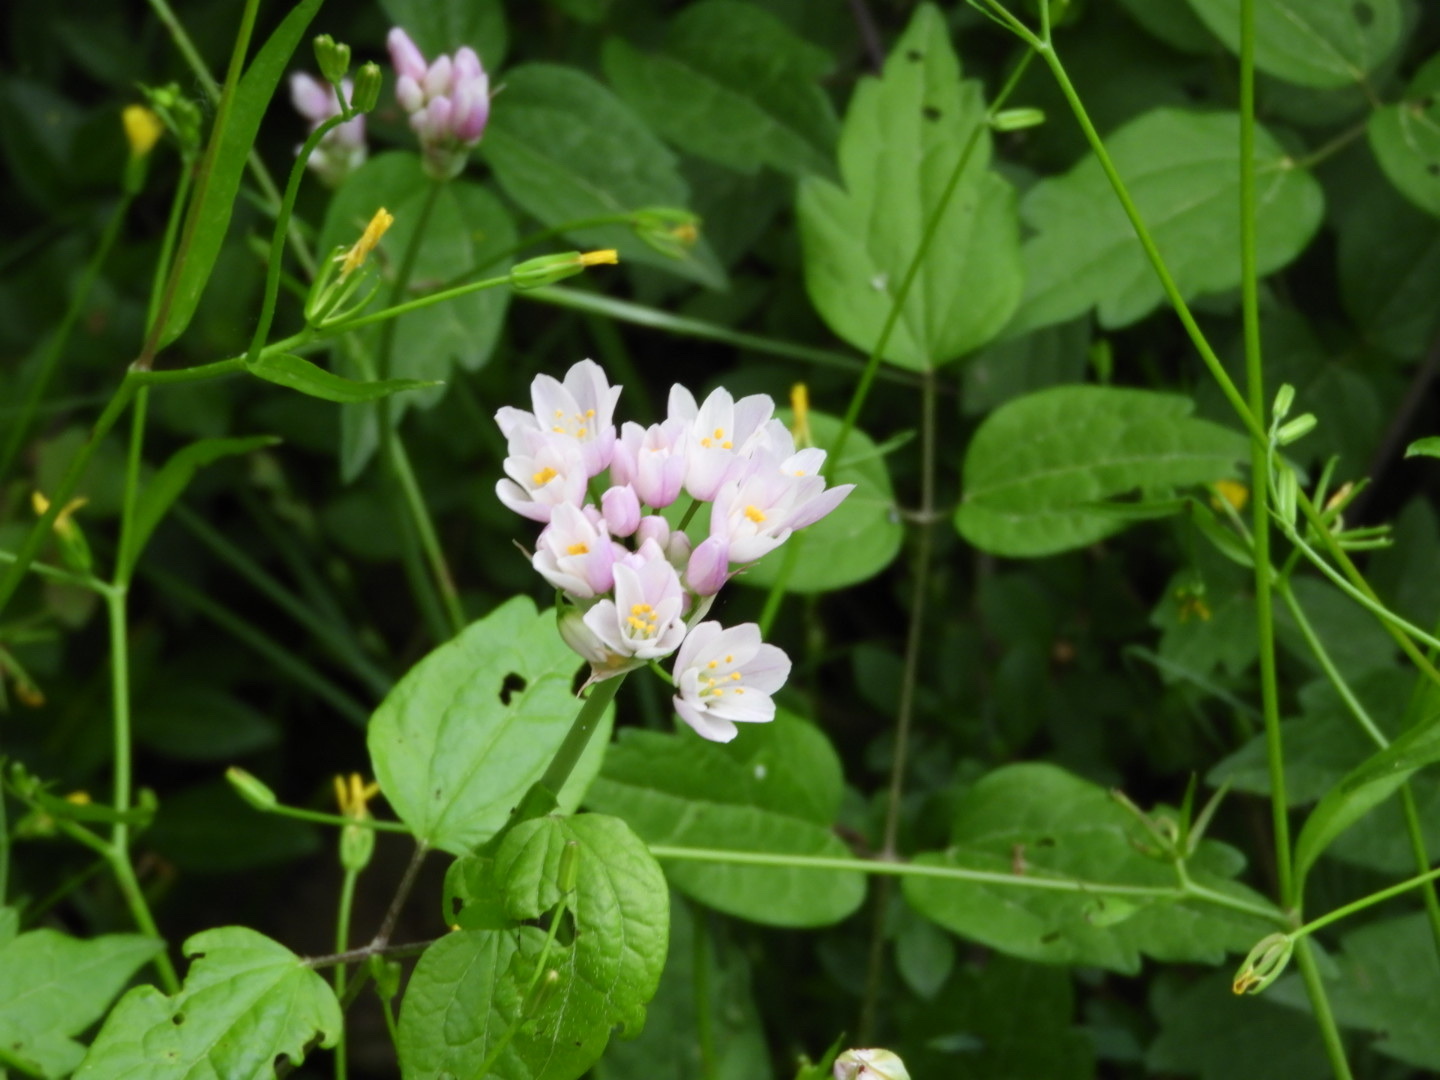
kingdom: Plantae
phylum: Tracheophyta
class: Liliopsida
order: Asparagales
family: Amaryllidaceae
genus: Allium
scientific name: Allium roseum
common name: Rosy garlic
